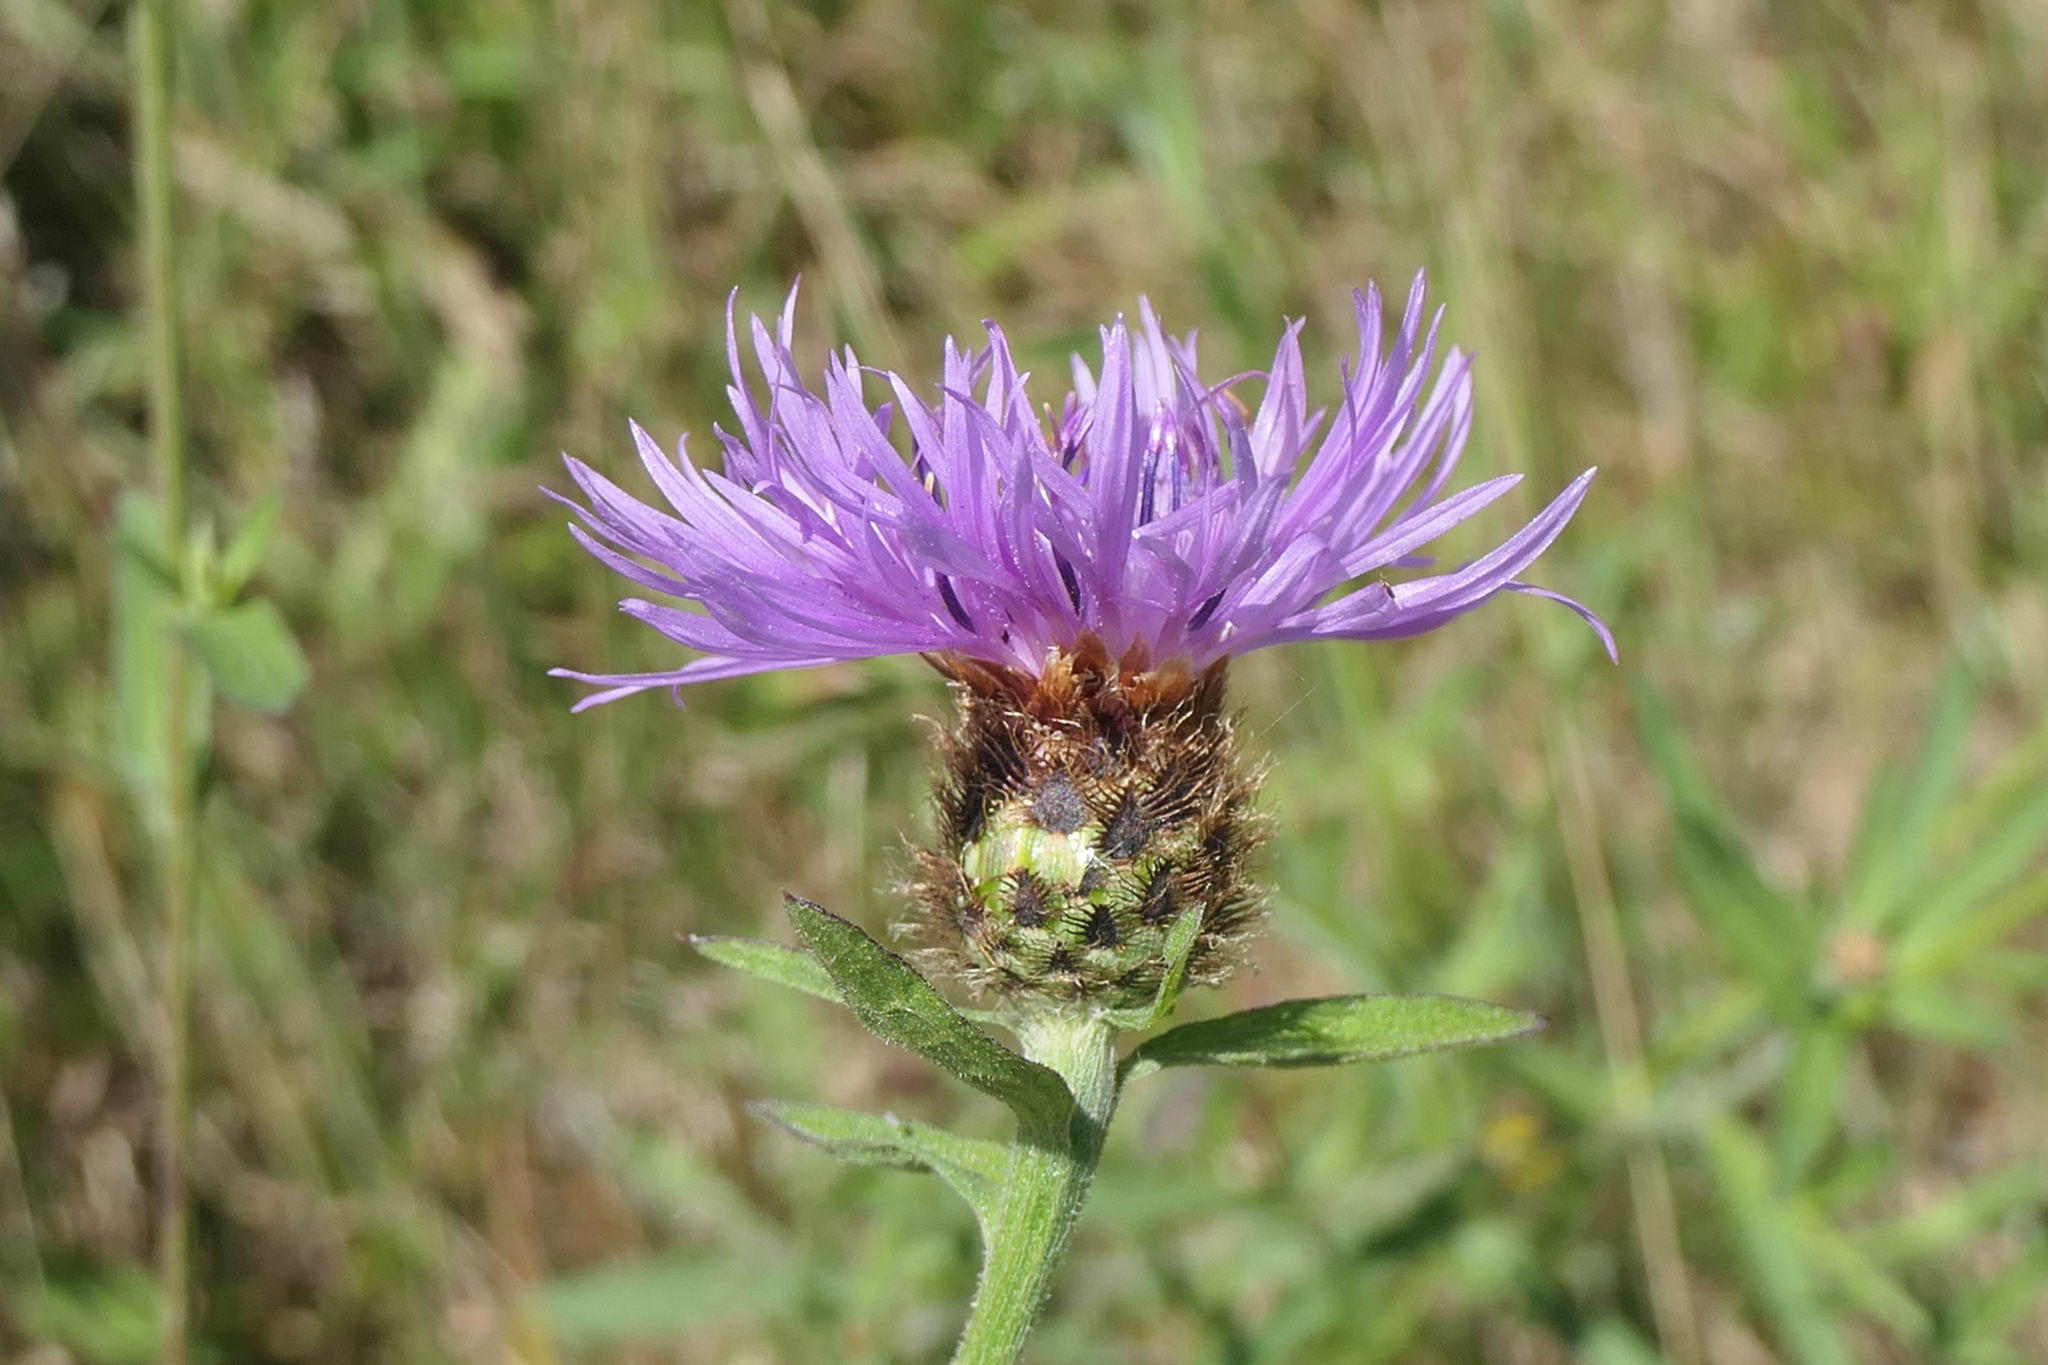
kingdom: Plantae
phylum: Tracheophyta
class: Magnoliopsida
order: Asterales
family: Asteraceae
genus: Centaurea
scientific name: Centaurea nigra
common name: Lesser knapweed
